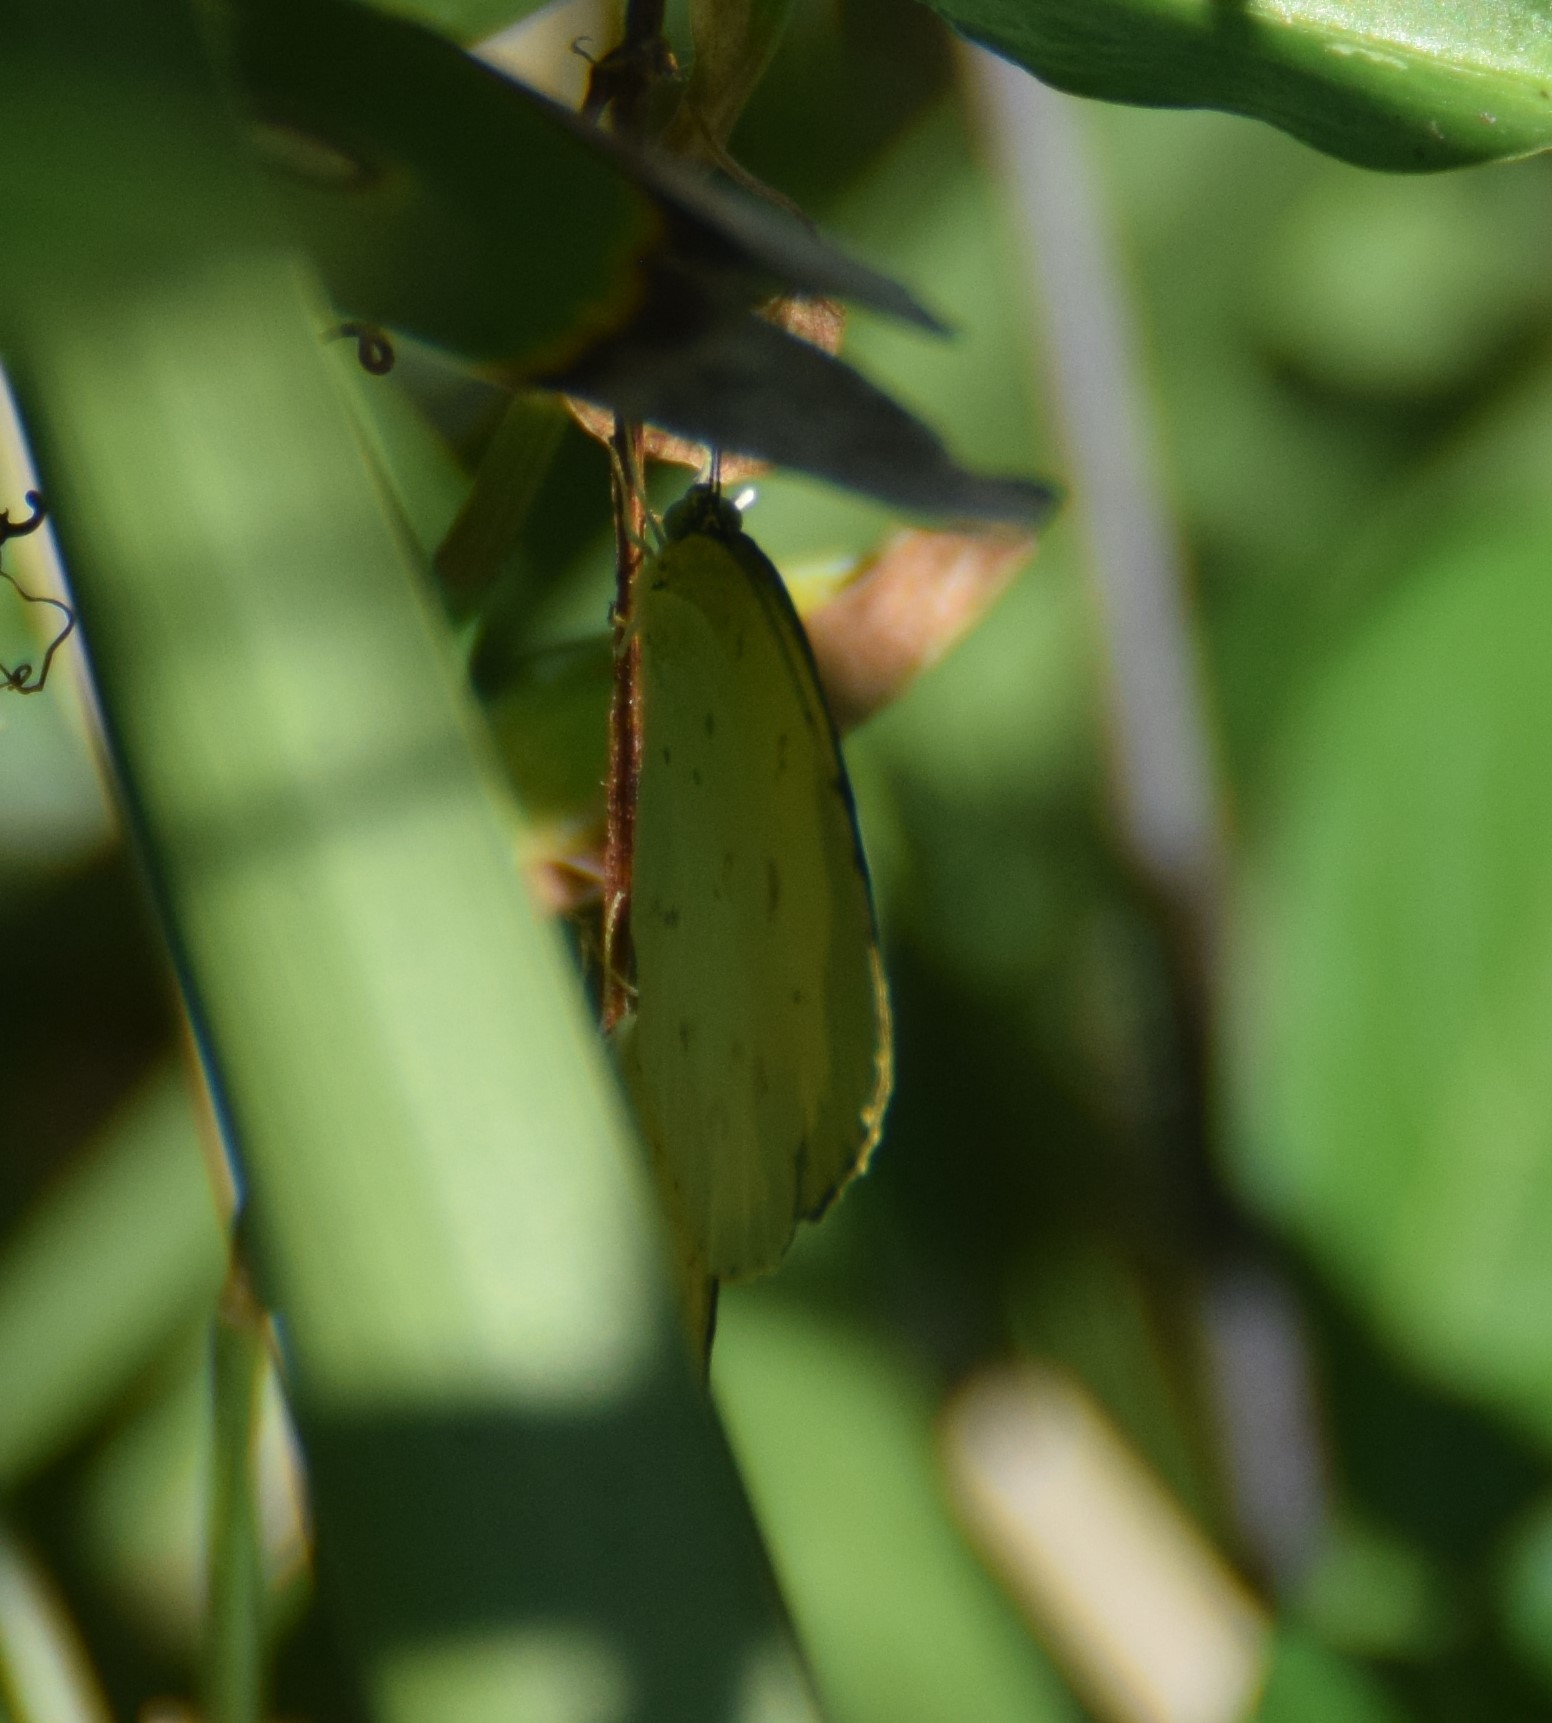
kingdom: Animalia
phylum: Arthropoda
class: Insecta
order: Lepidoptera
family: Pieridae
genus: Eurema
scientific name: Eurema
